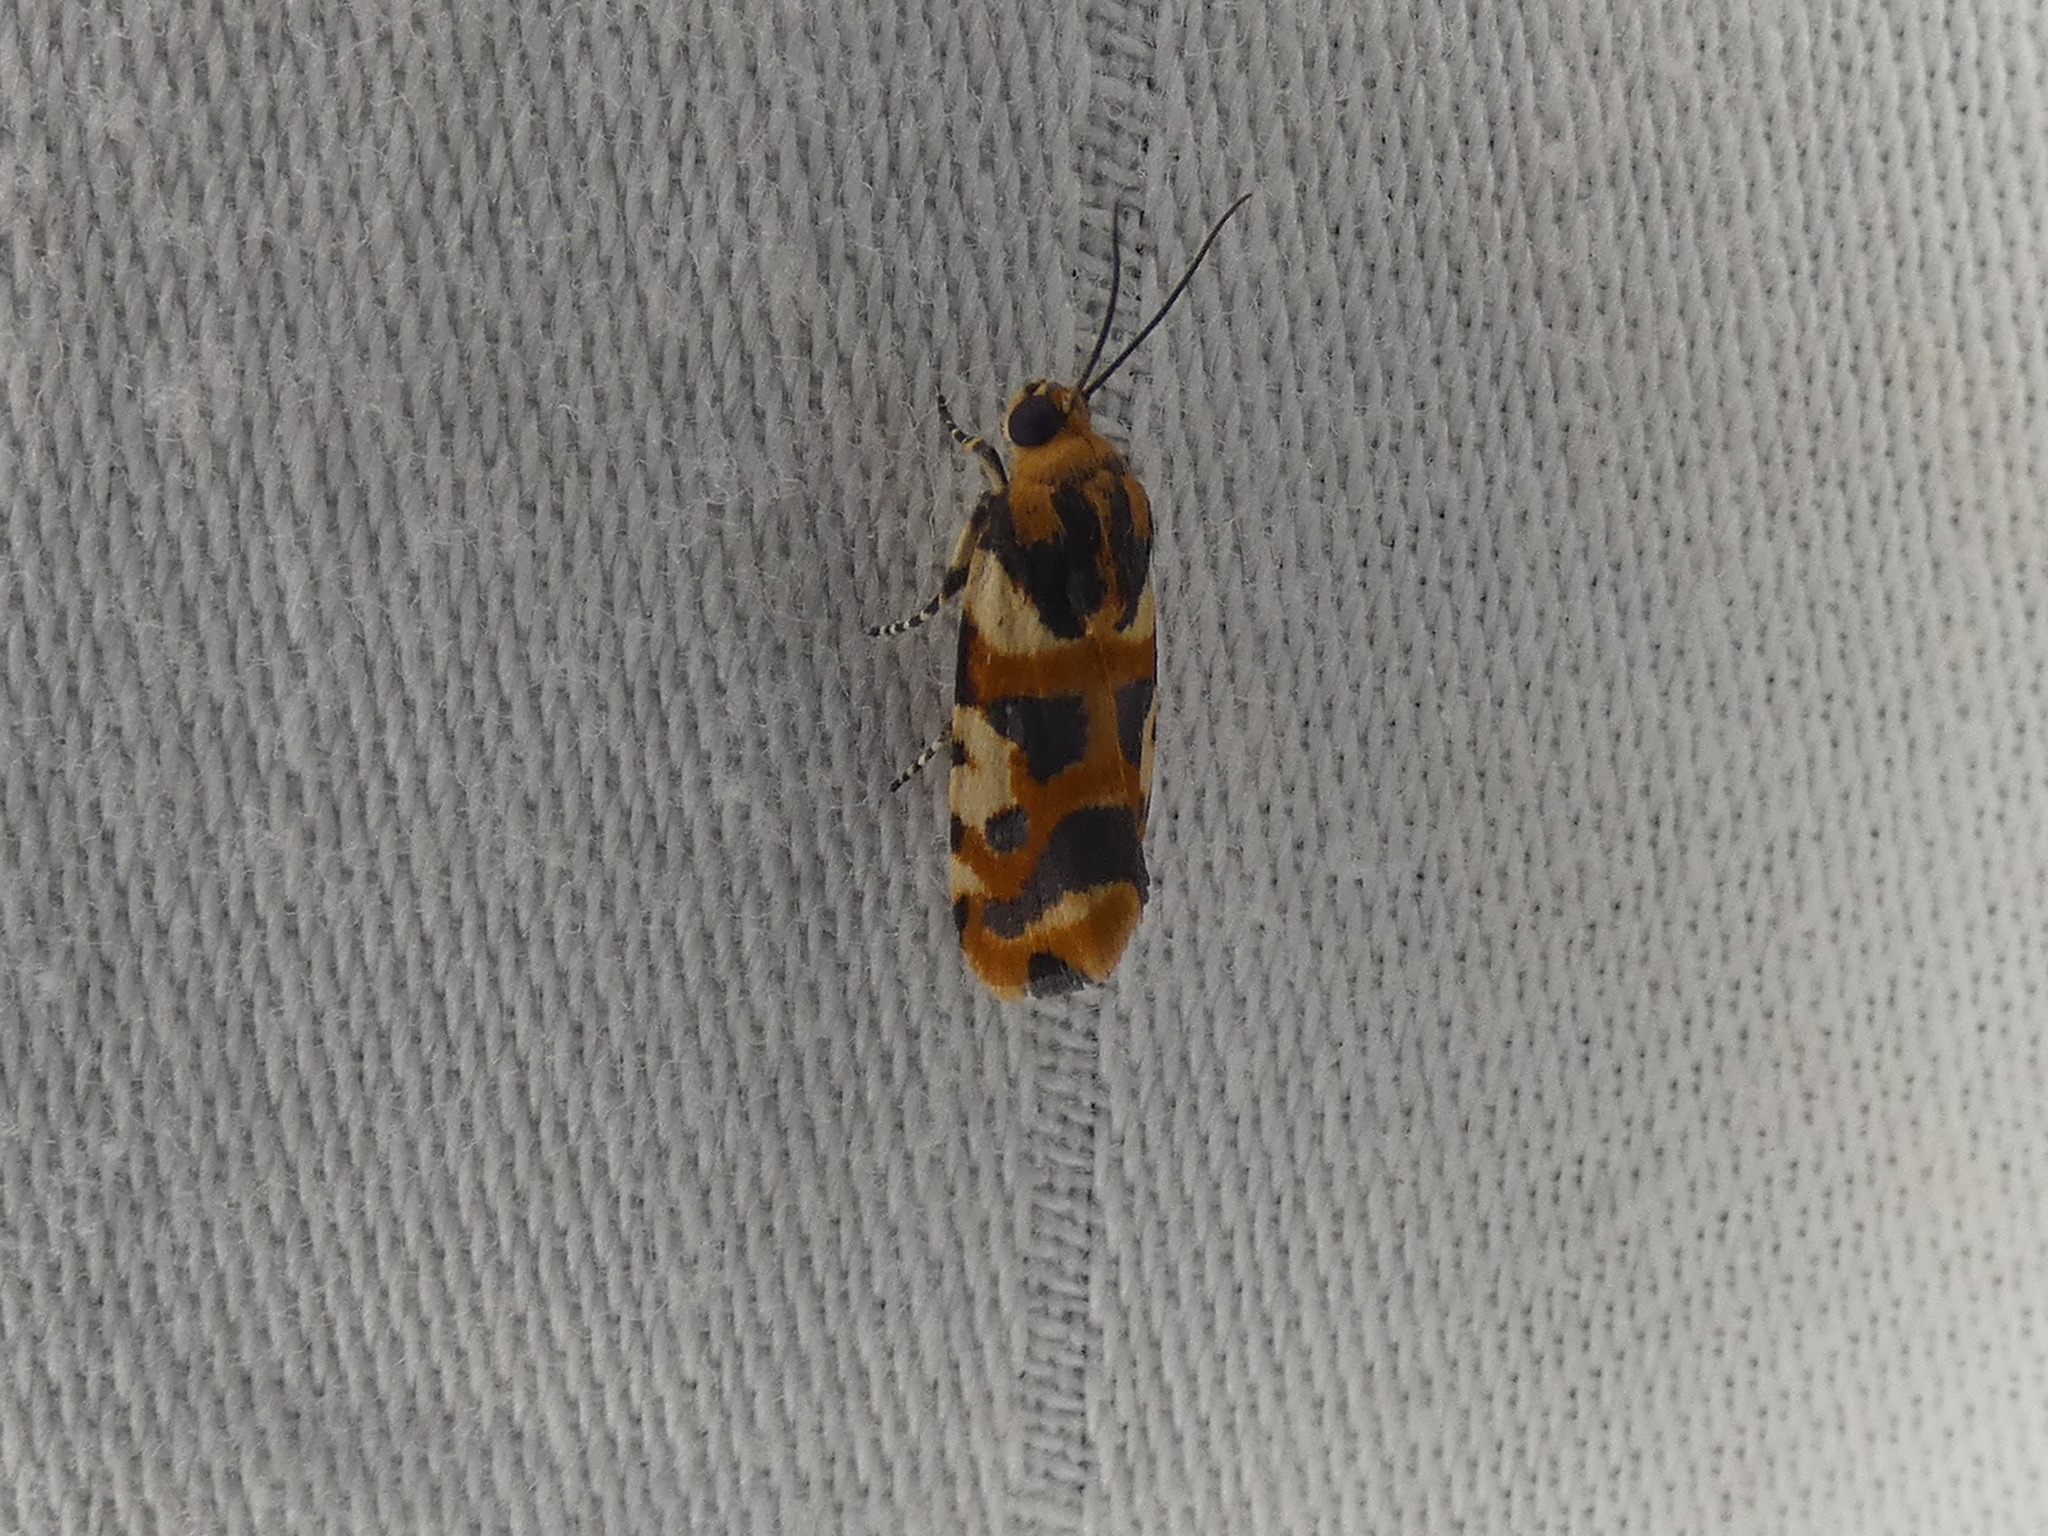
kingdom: Animalia
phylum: Arthropoda
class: Insecta
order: Lepidoptera
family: Noctuidae
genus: Acontia
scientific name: Acontia dama
